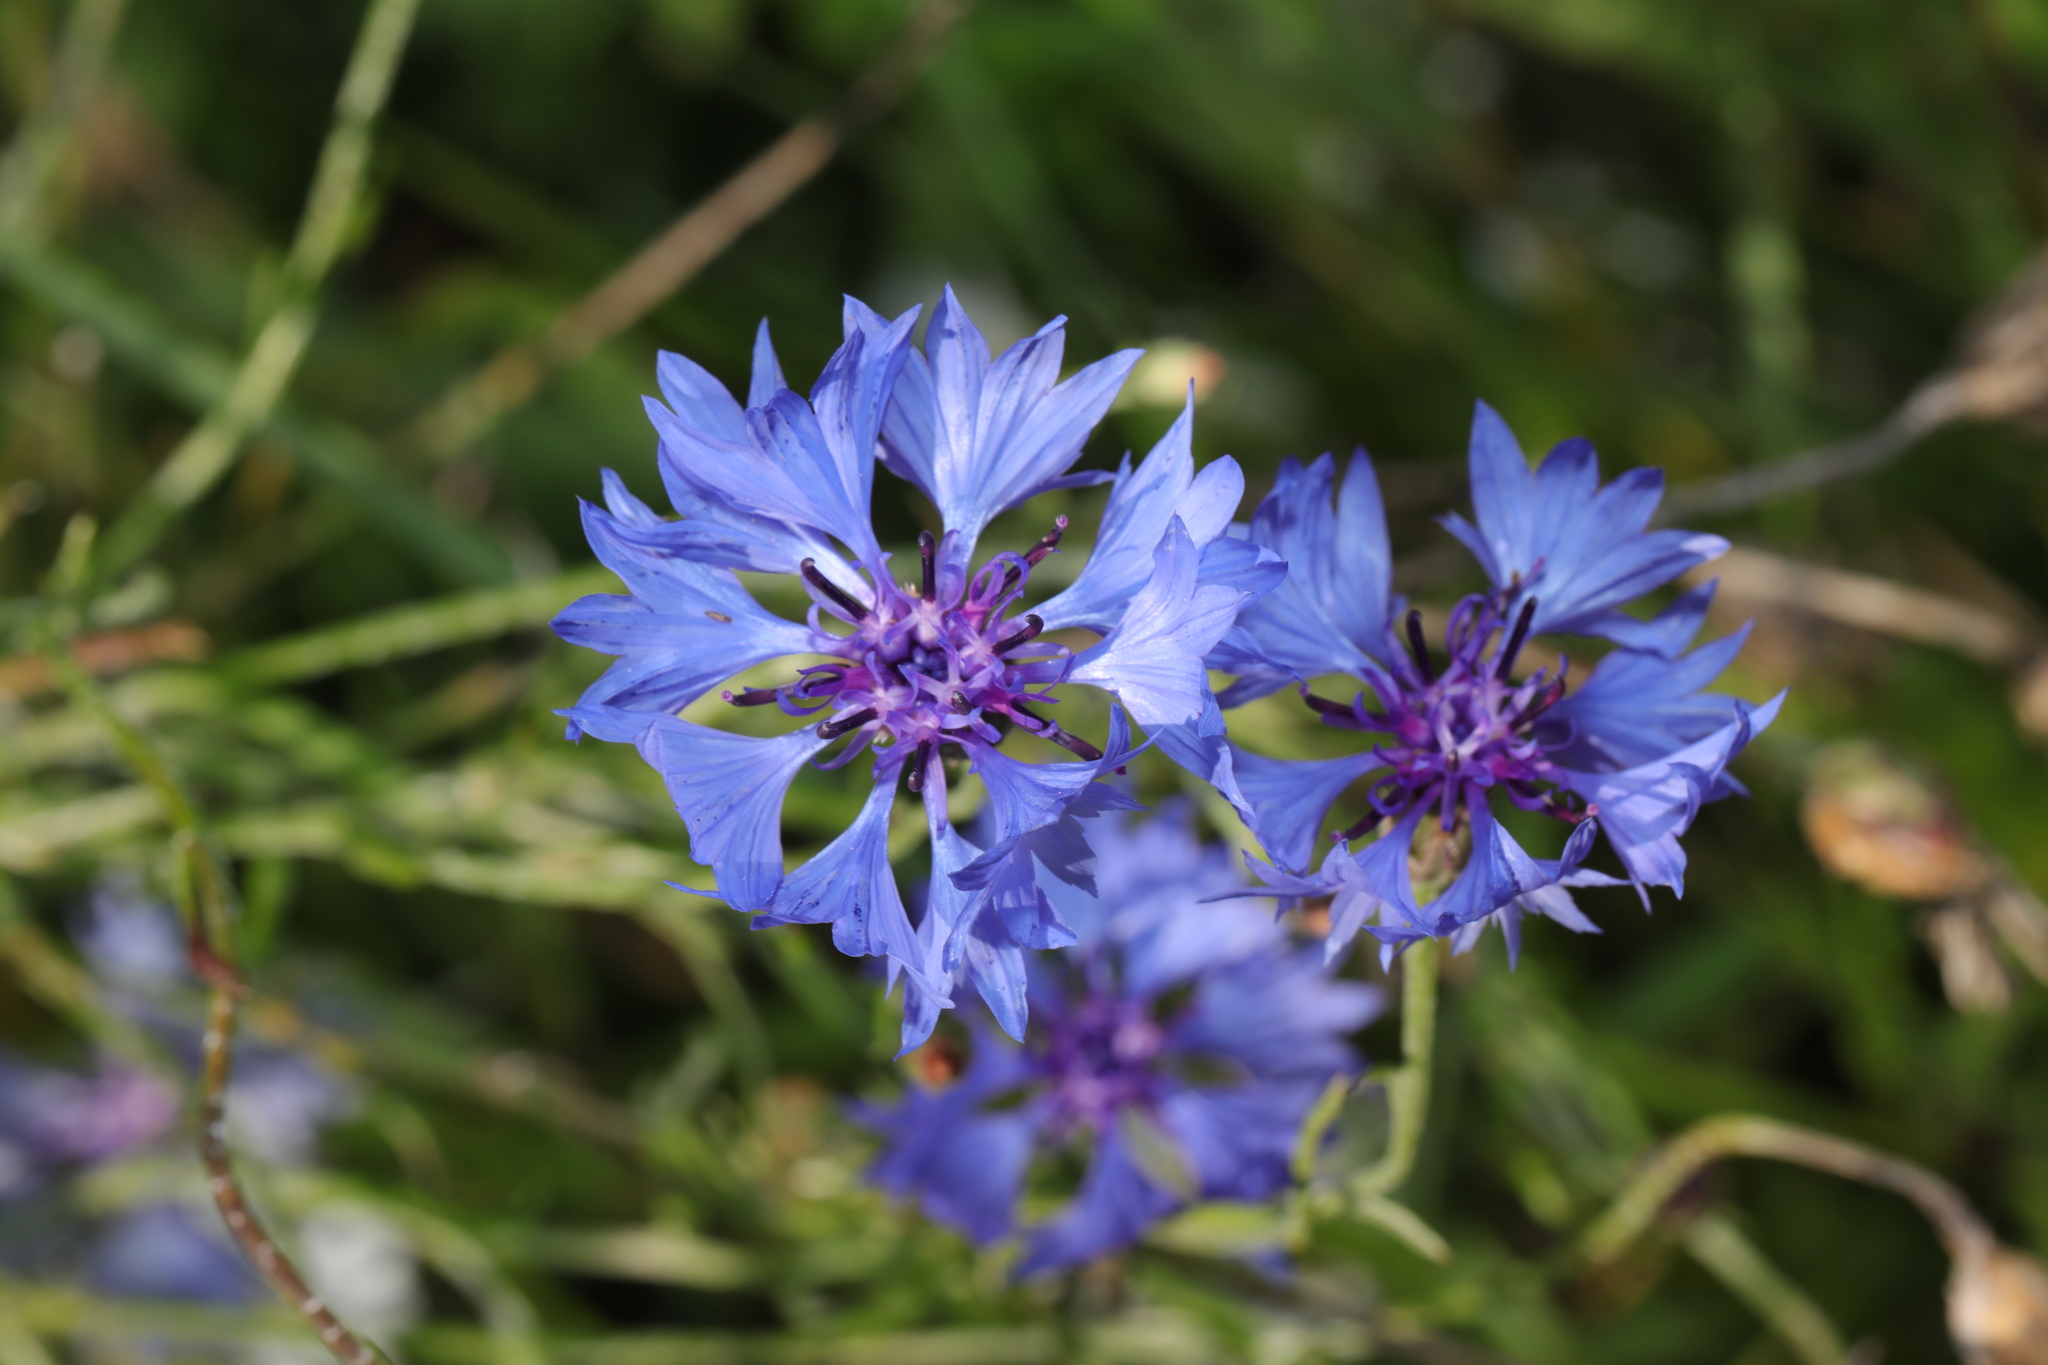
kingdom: Plantae
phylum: Tracheophyta
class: Magnoliopsida
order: Asterales
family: Asteraceae
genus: Centaurea
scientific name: Centaurea cyanus
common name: Cornflower
